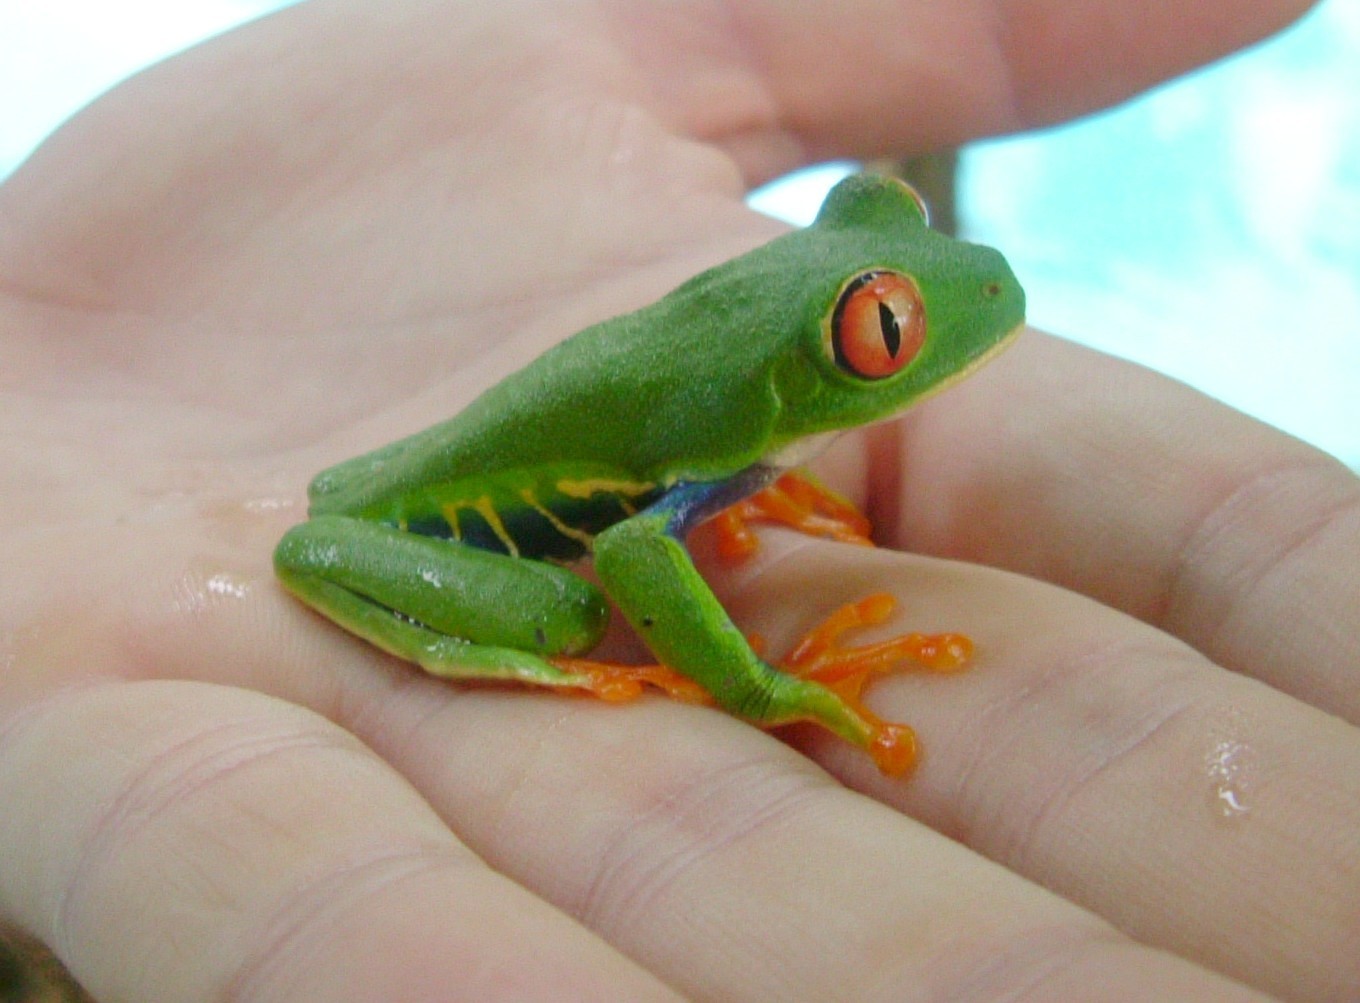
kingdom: Animalia
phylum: Chordata
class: Amphibia
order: Anura
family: Phyllomedusidae
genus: Agalychnis
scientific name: Agalychnis callidryas
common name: Red-eyed treefrog
